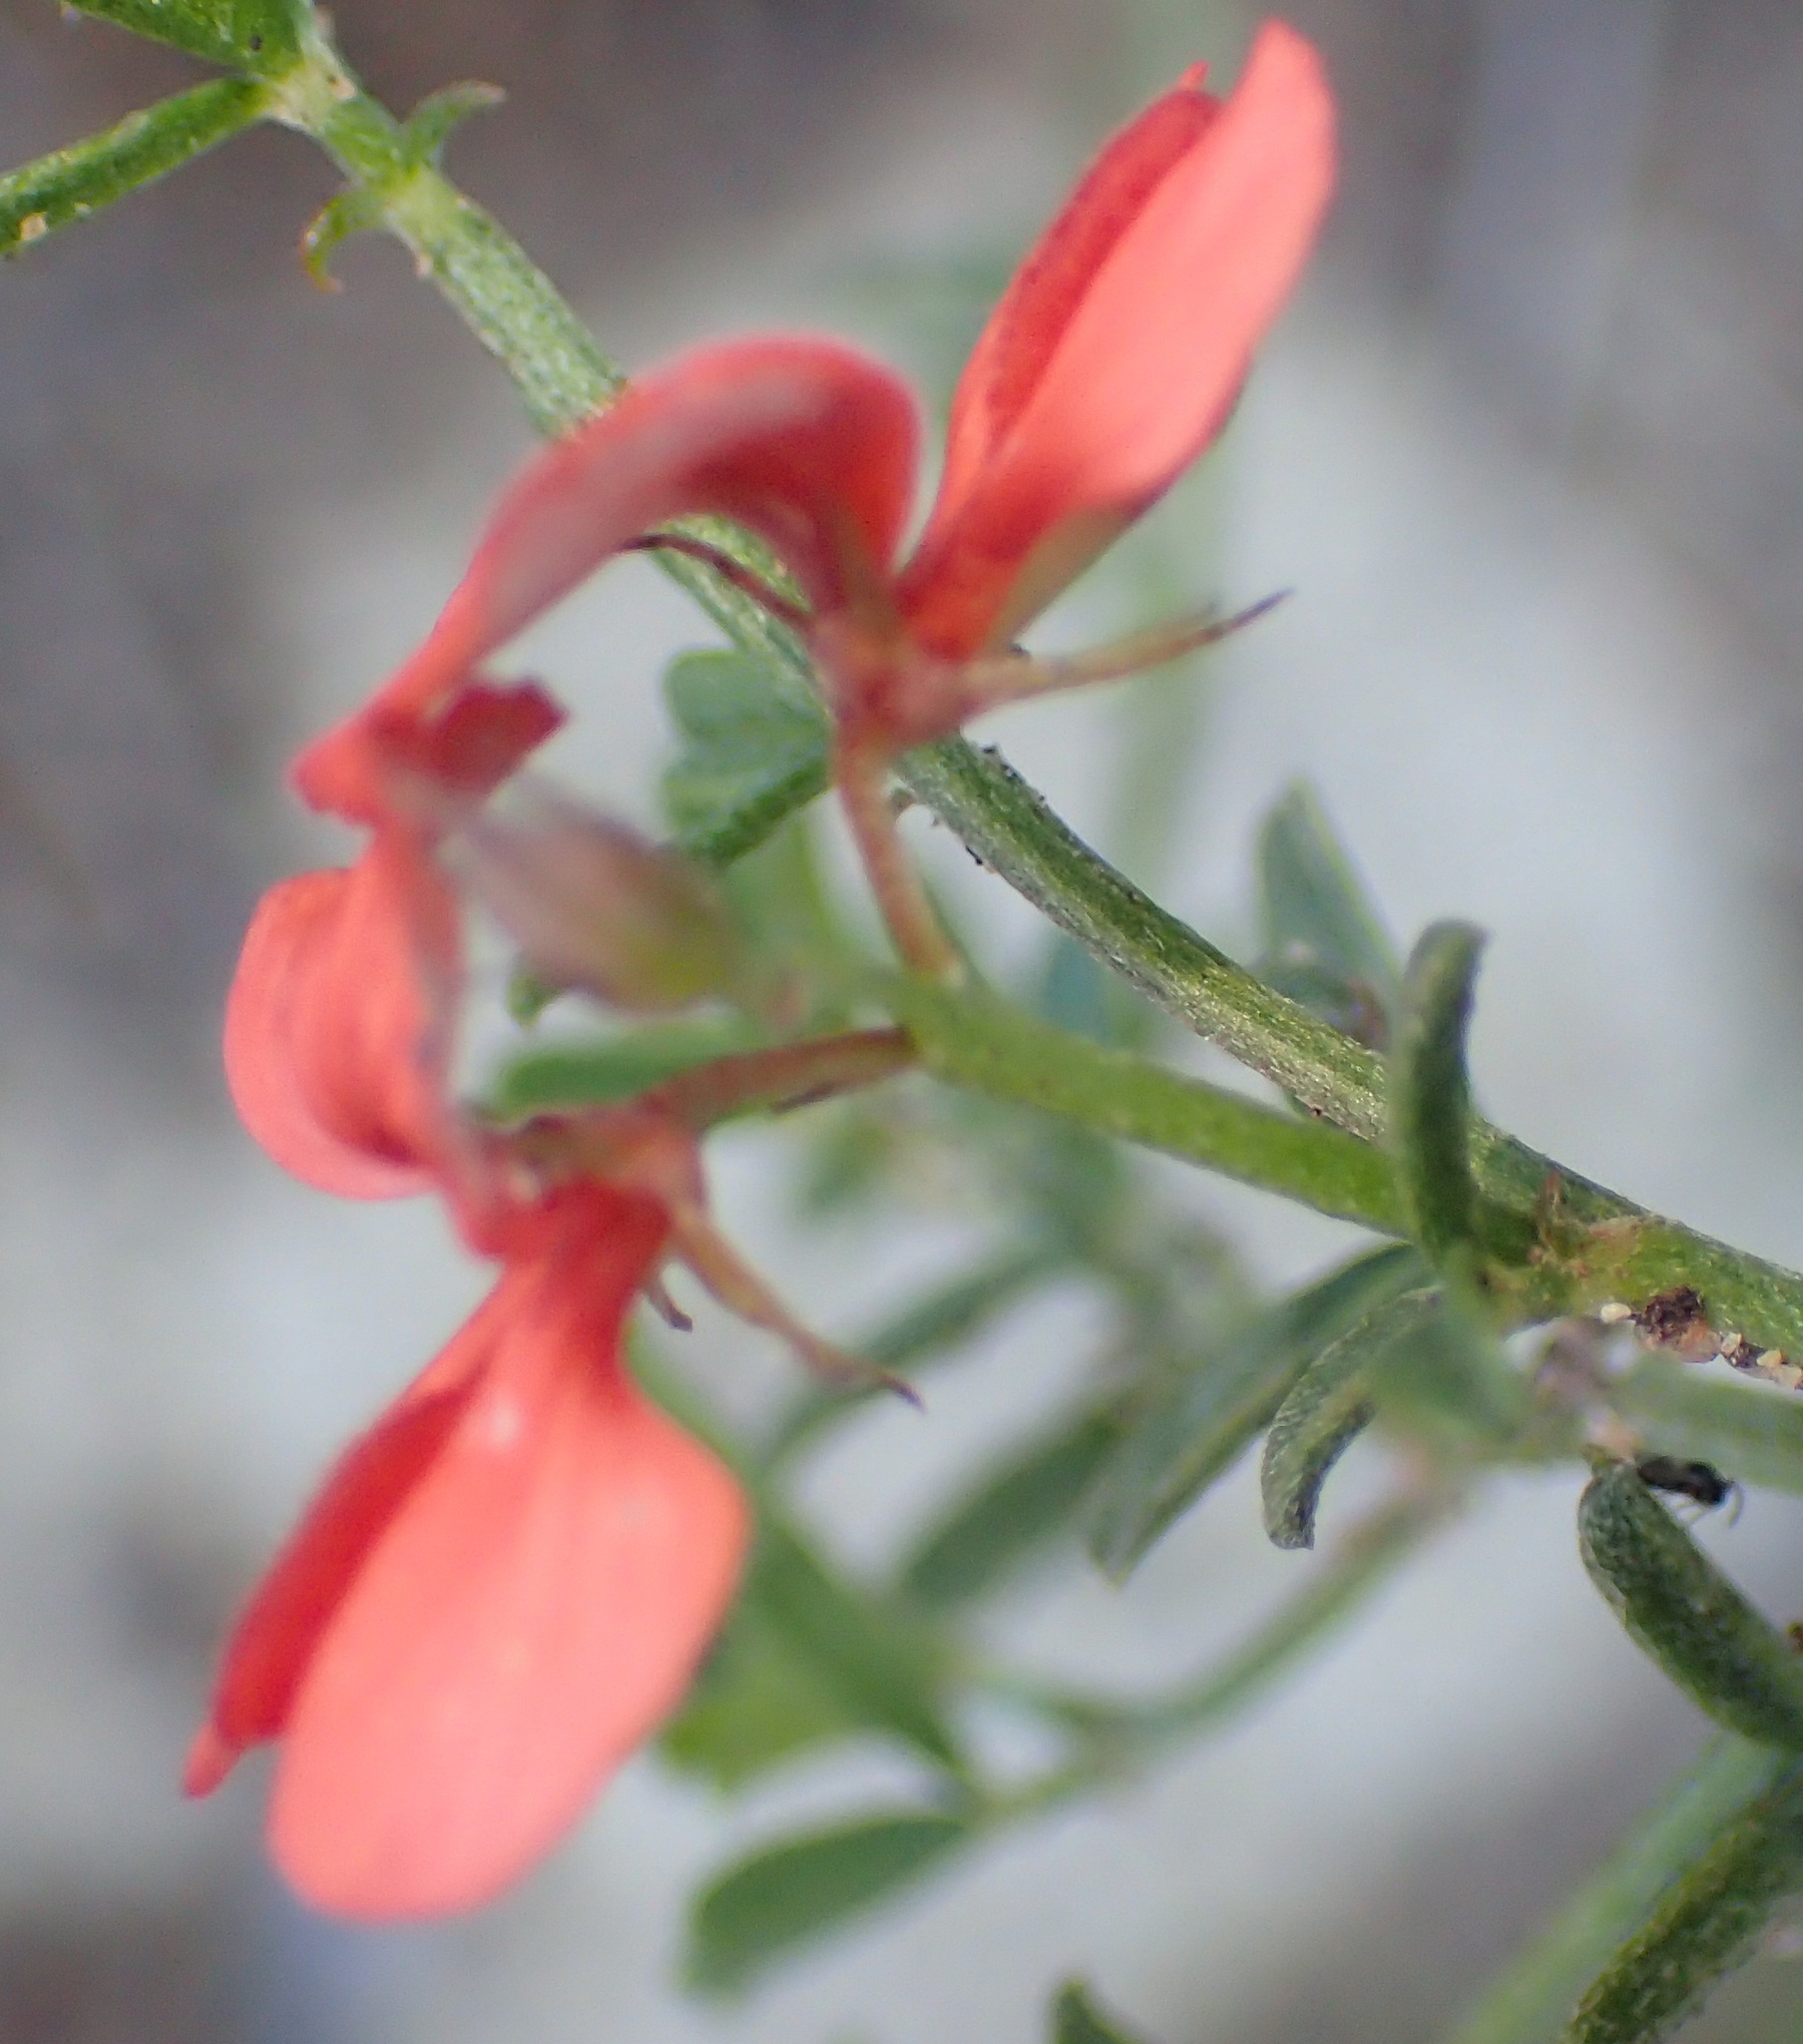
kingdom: Plantae
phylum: Tracheophyta
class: Magnoliopsida
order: Fabales
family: Fabaceae
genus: Indigofera
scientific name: Indigofera priorii
